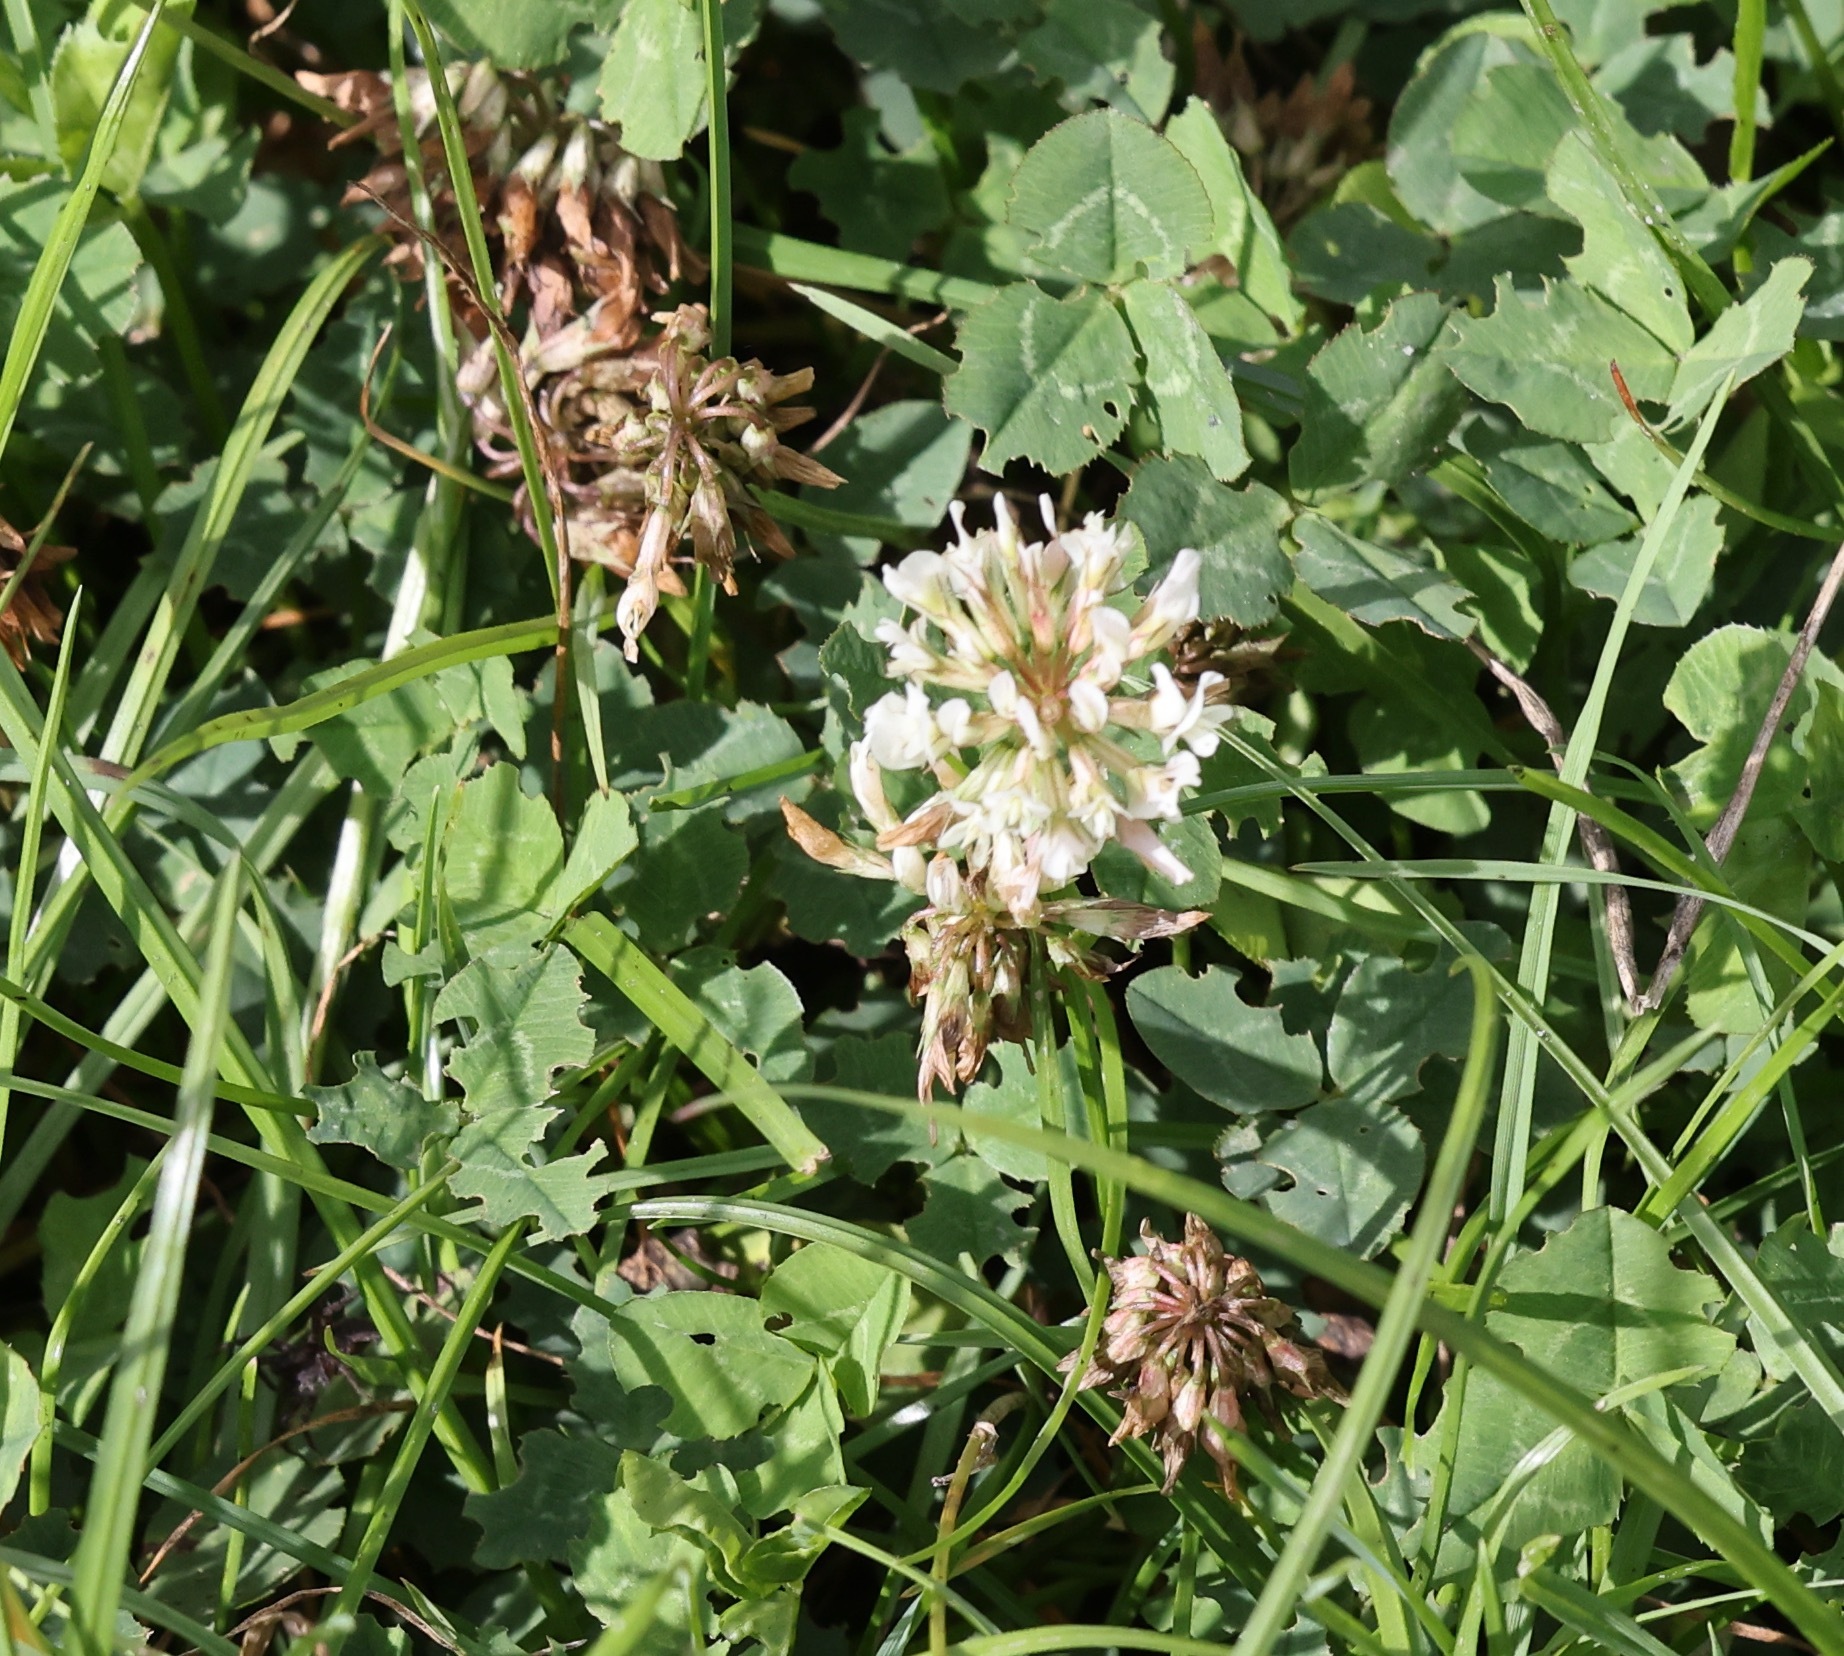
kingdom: Plantae
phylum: Tracheophyta
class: Magnoliopsida
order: Fabales
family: Fabaceae
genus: Trifolium
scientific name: Trifolium repens
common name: White clover
